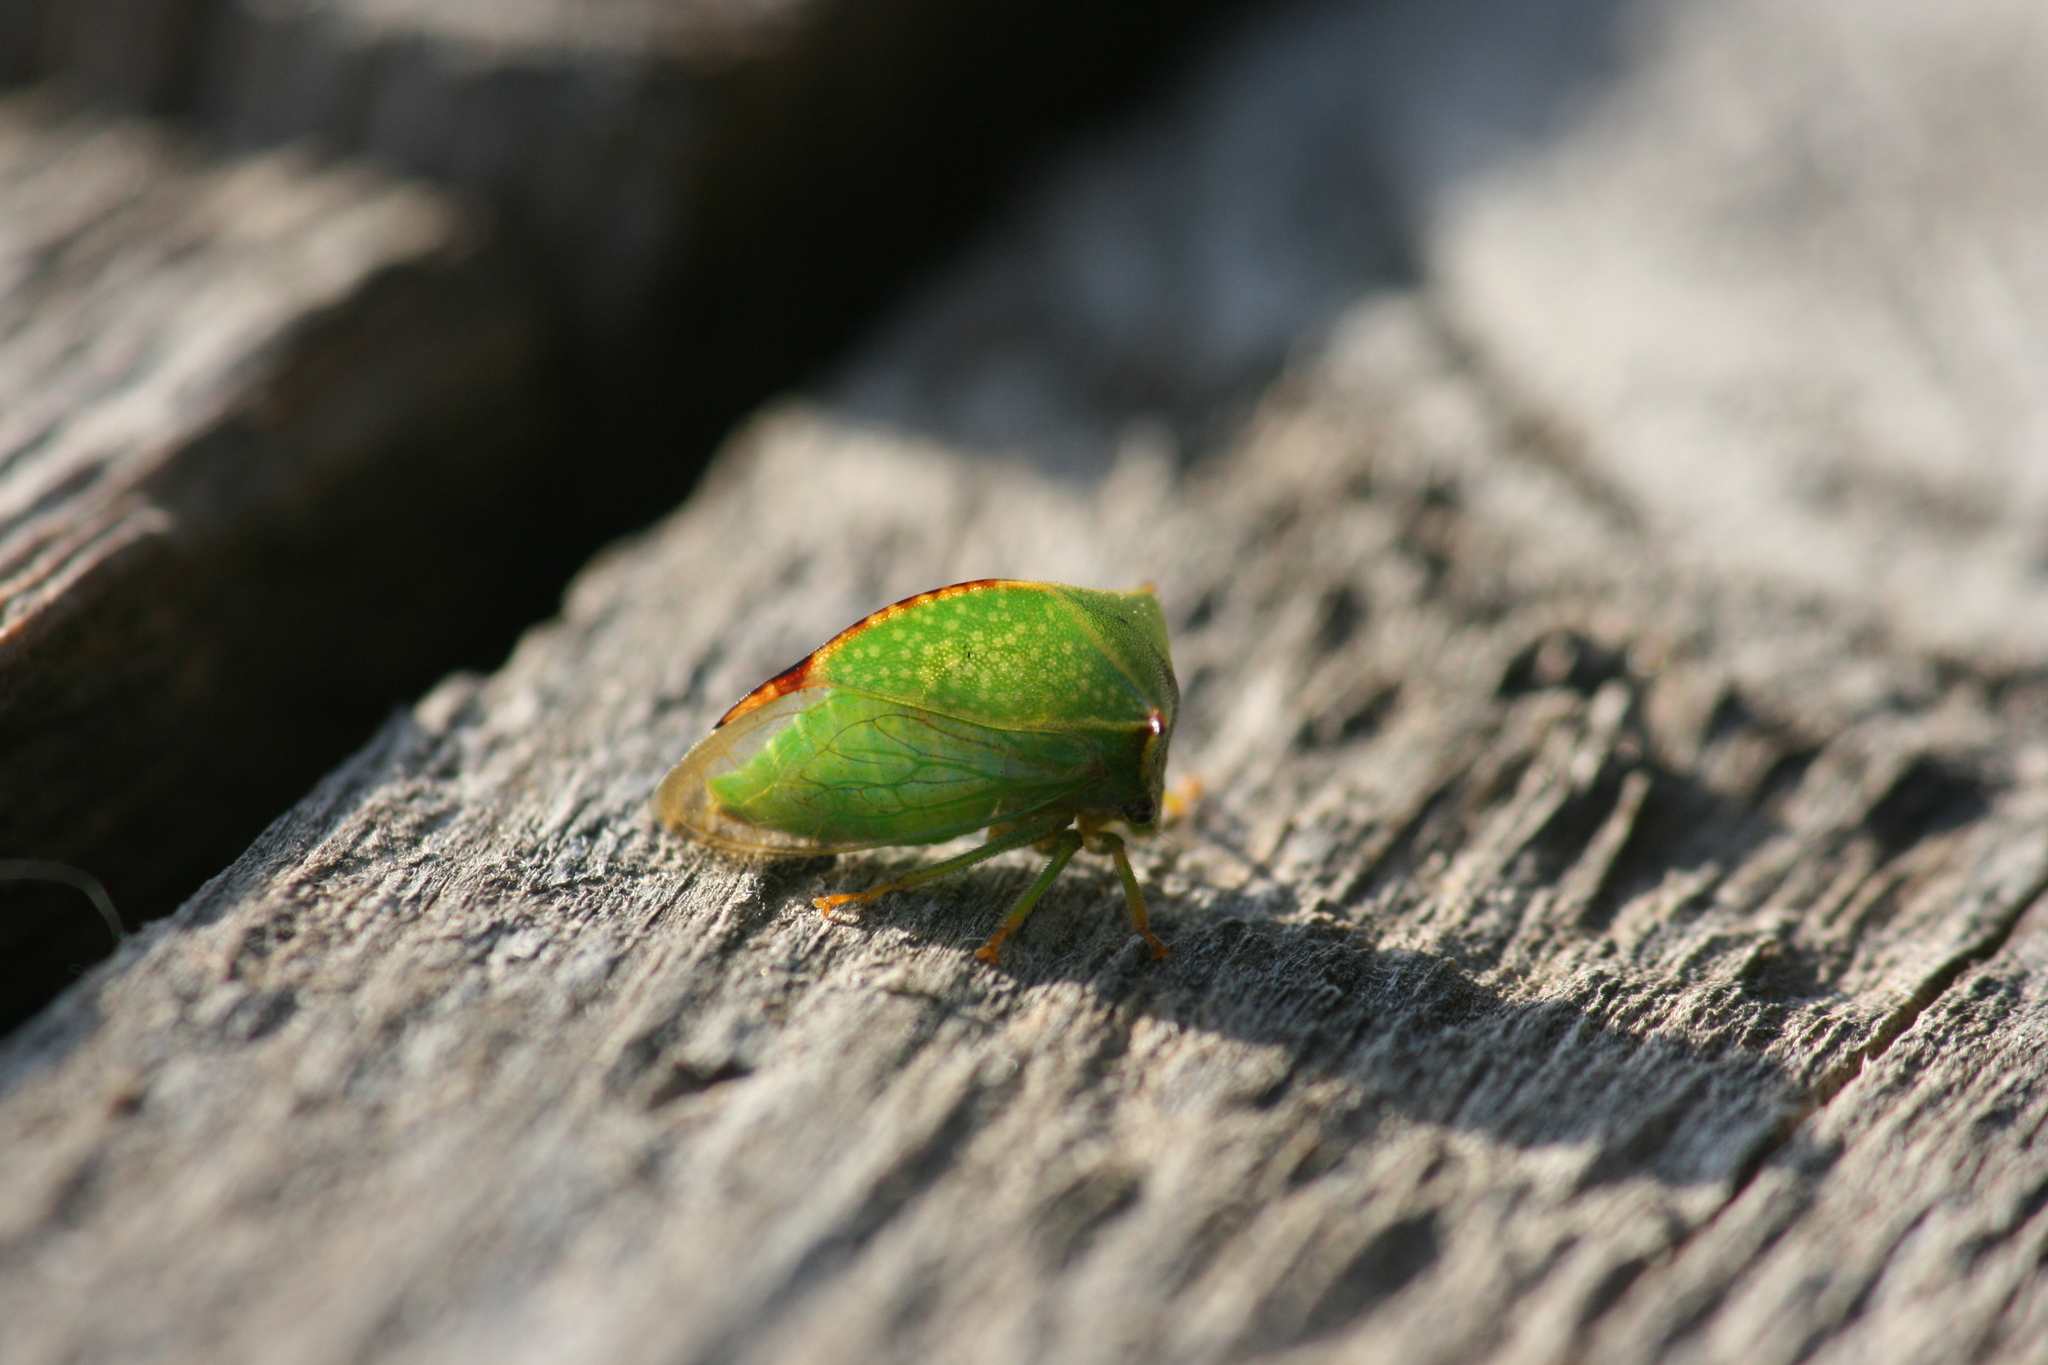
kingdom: Animalia
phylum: Arthropoda
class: Insecta
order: Hemiptera
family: Membracidae
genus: Stictocephala
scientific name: Stictocephala bisonia
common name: American buffalo treehopper
